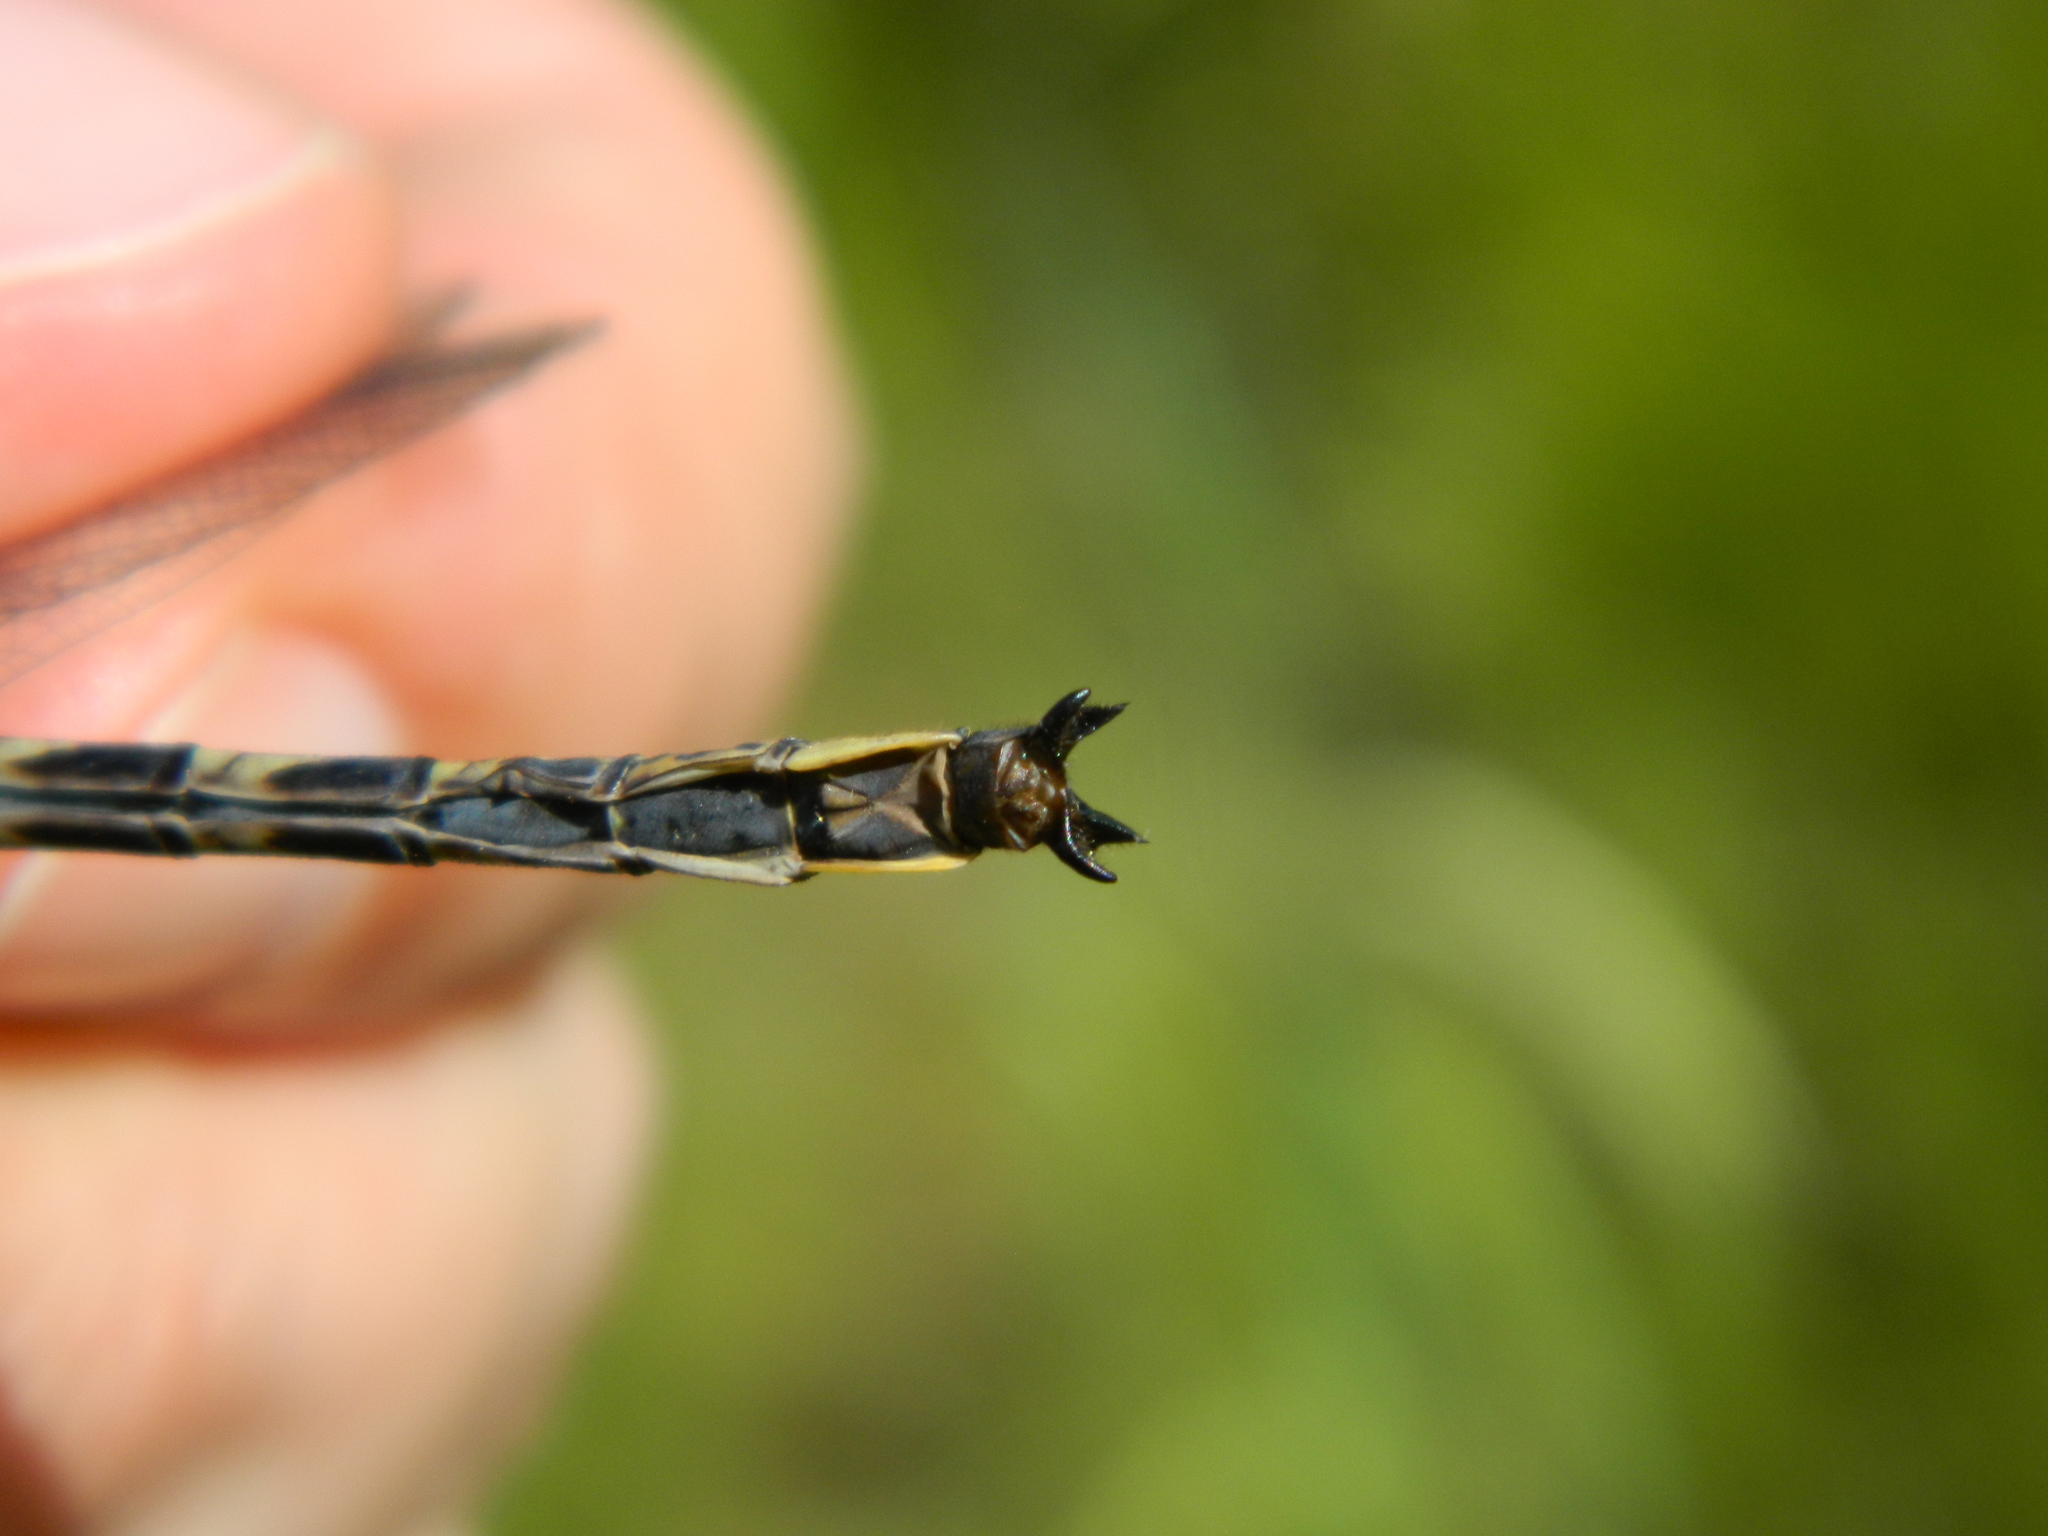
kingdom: Animalia
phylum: Arthropoda
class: Insecta
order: Odonata
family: Gomphidae
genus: Phanogomphus
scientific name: Phanogomphus spicatus
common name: Dusky clubtail
